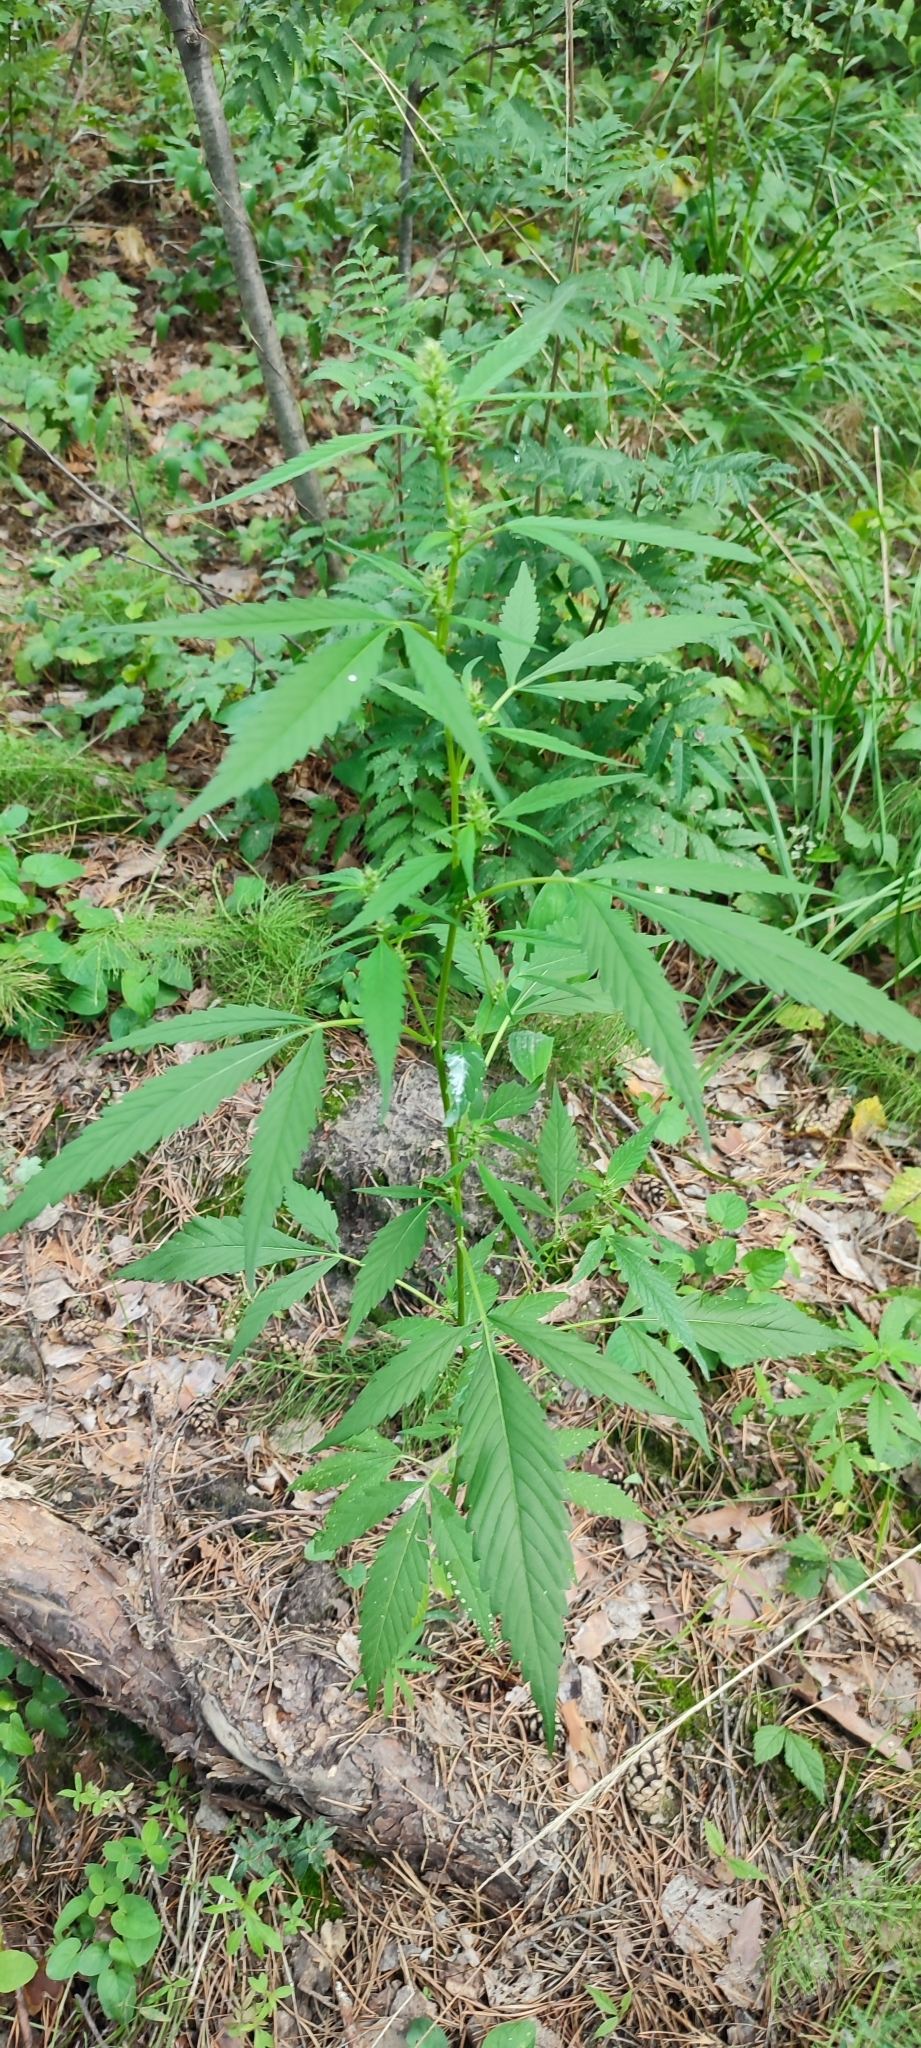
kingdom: Plantae
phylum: Tracheophyta
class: Magnoliopsida
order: Rosales
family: Cannabaceae
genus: Cannabis
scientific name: Cannabis sativa
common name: Hemp
